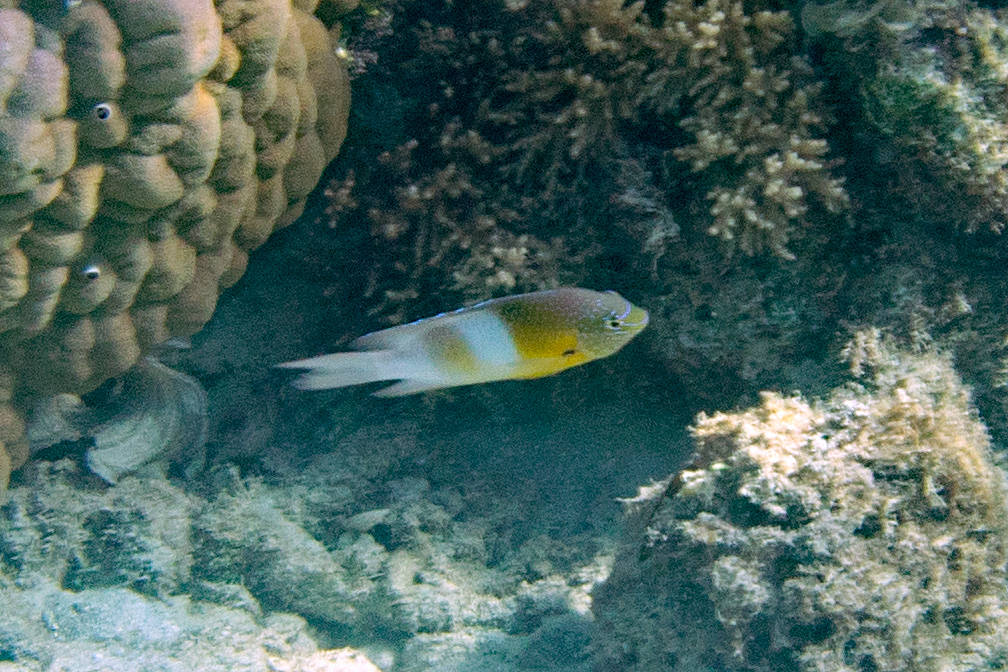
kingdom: Animalia
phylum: Chordata
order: Perciformes
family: Pomacentridae
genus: Dischistodus
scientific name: Dischistodus prosopotaenia
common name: Honey-head damsel
